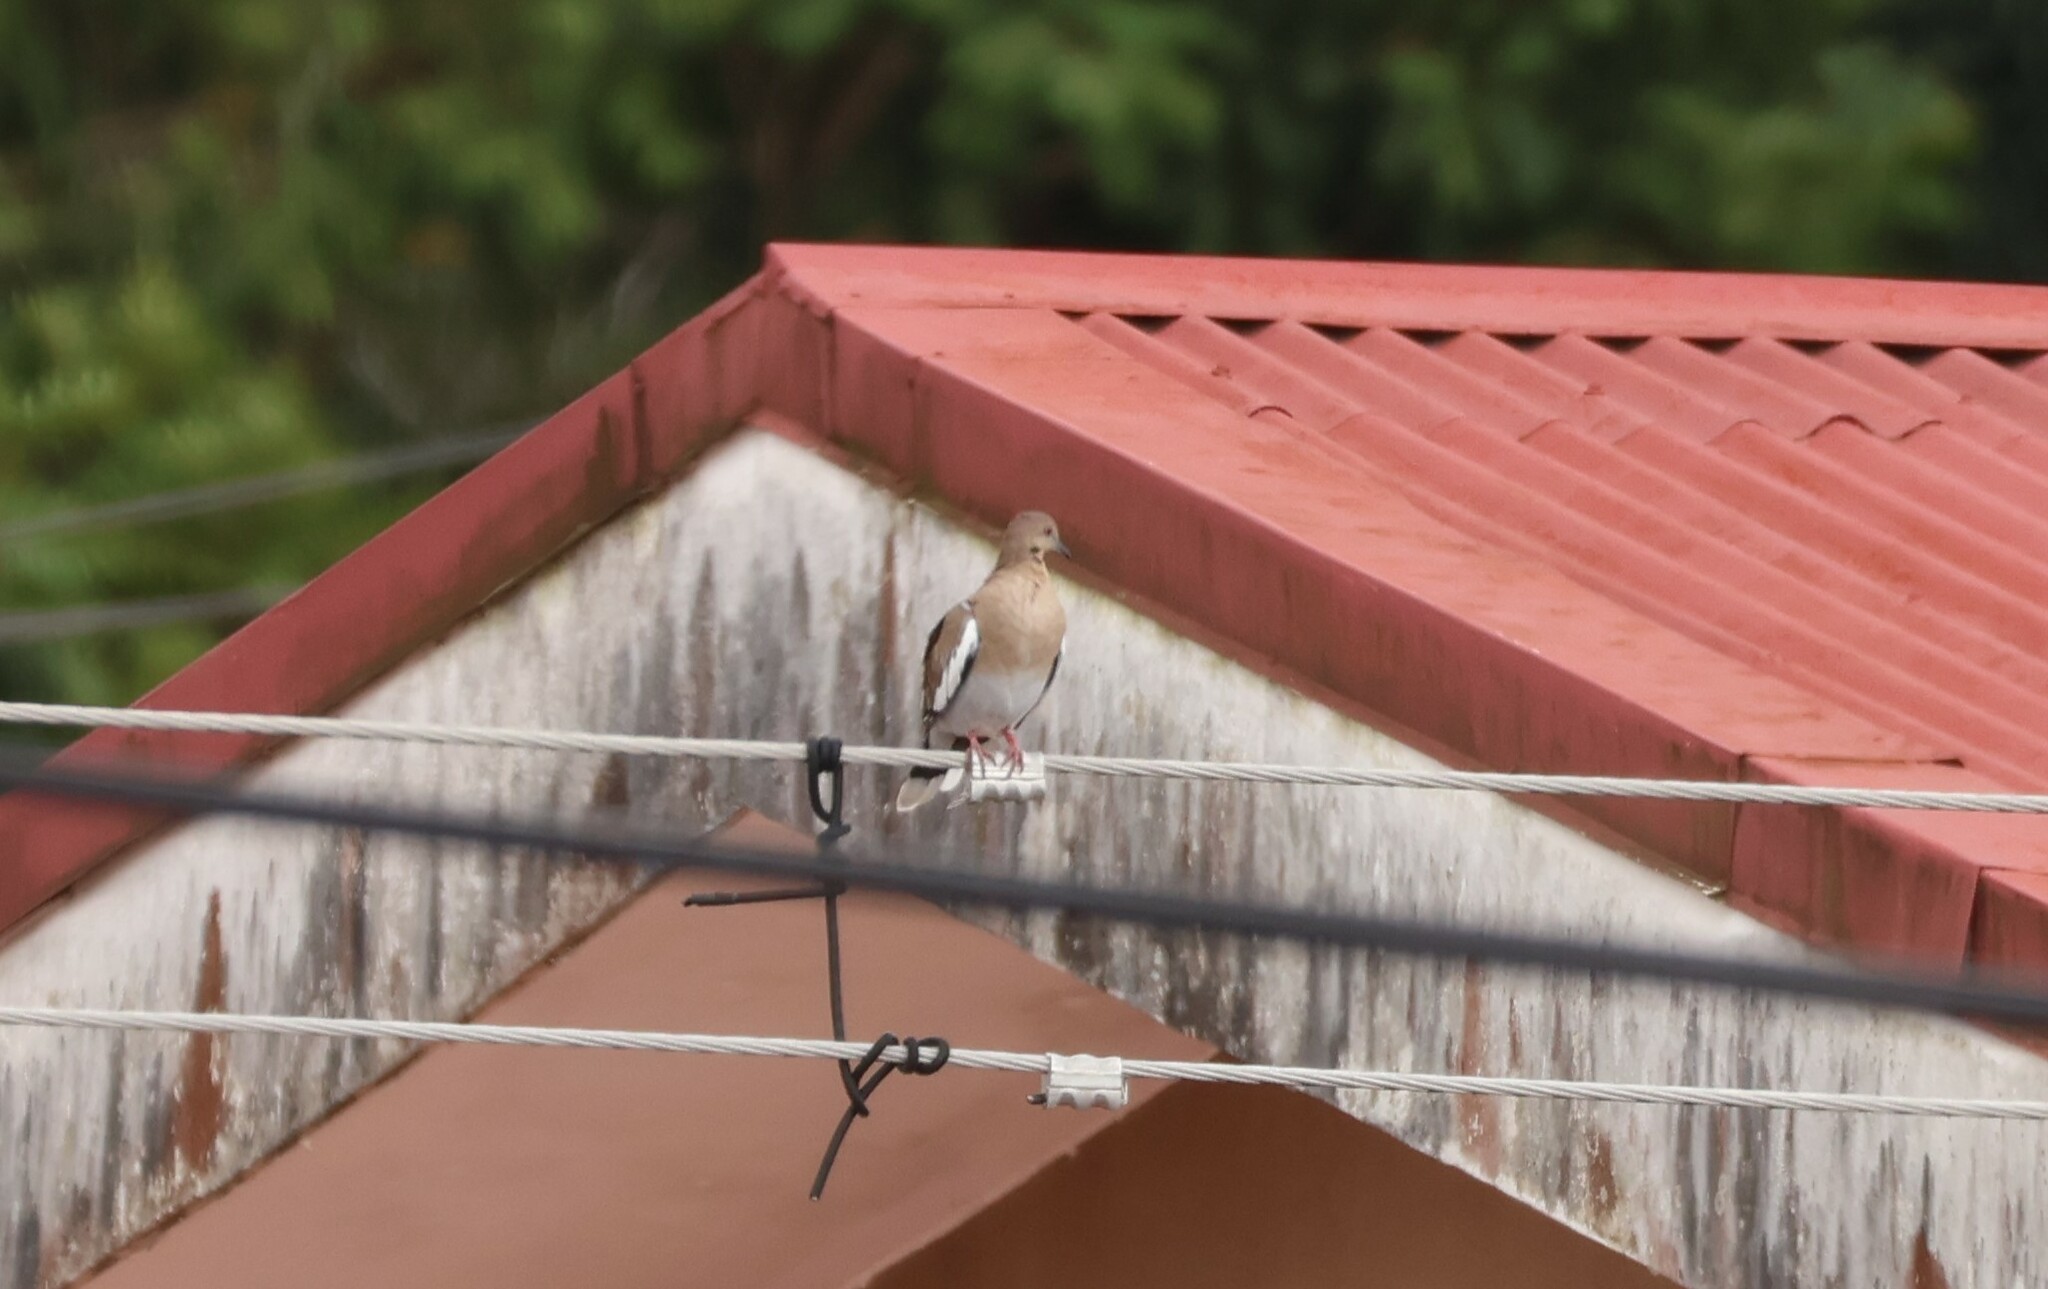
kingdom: Animalia
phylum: Chordata
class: Aves
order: Columbiformes
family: Columbidae
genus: Zenaida
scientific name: Zenaida asiatica
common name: White-winged dove
